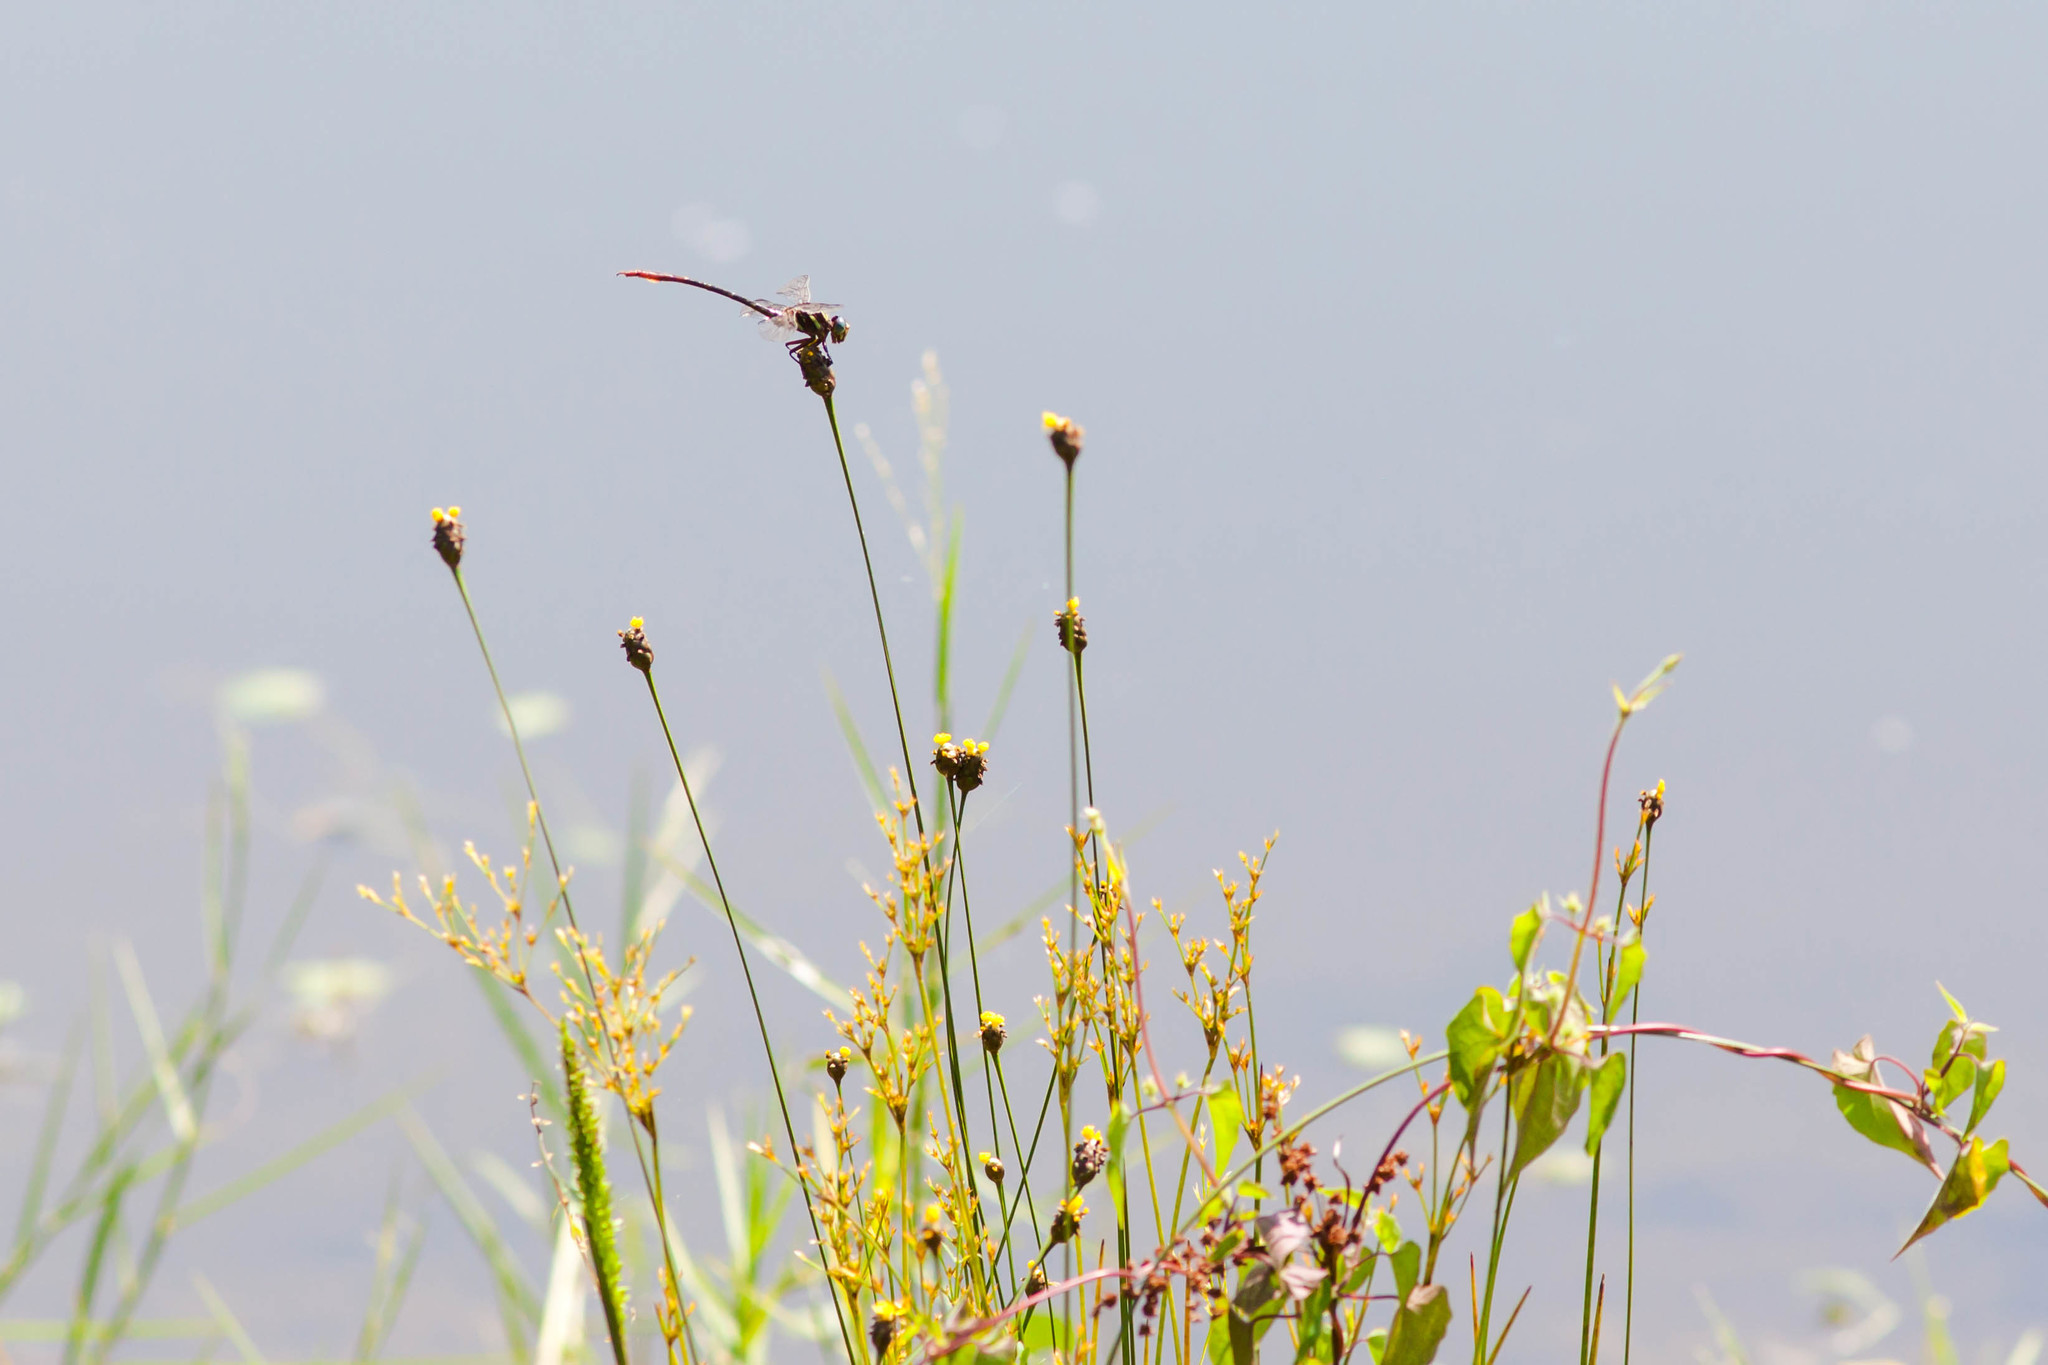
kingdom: Animalia
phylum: Arthropoda
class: Insecta
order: Odonata
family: Gomphidae
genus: Aphylla
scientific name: Aphylla williamsoni
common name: Two-striped forceptail
